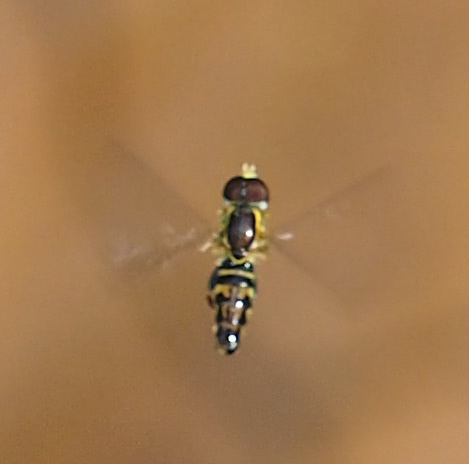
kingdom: Animalia
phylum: Arthropoda
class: Insecta
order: Diptera
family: Syrphidae
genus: Toxomerus
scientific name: Toxomerus geminatus
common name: Eastern calligrapher
